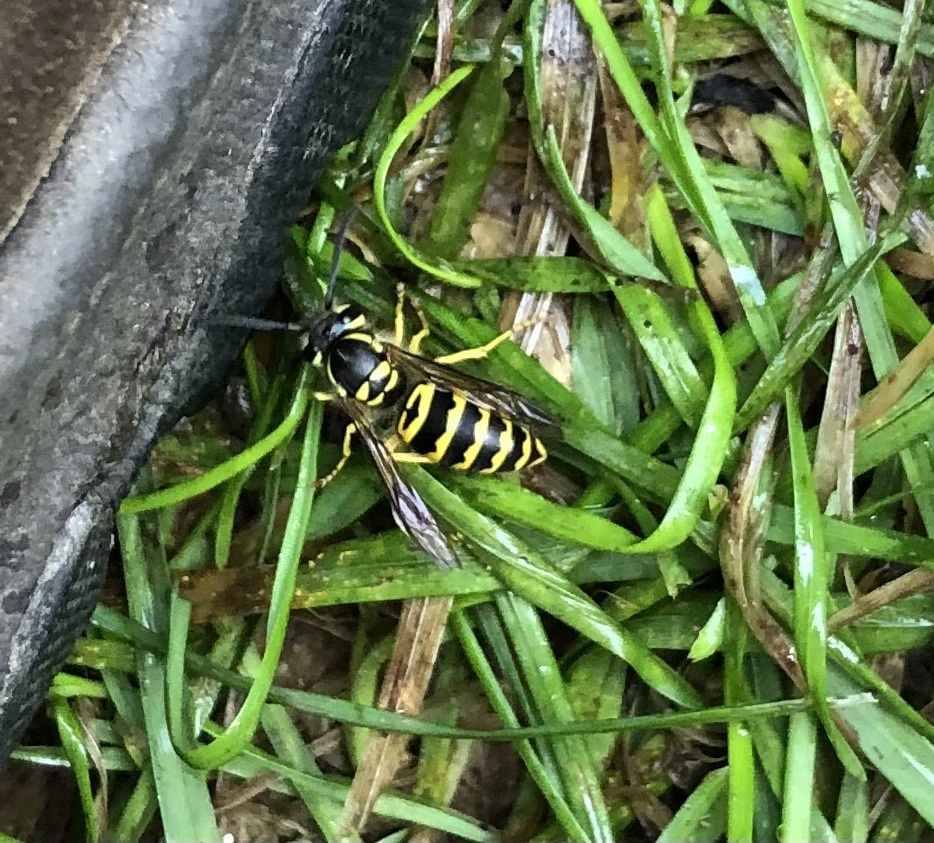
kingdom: Animalia
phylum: Arthropoda
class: Insecta
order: Hymenoptera
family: Vespidae
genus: Vespula
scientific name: Vespula maculifrons
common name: Eastern yellowjacket
